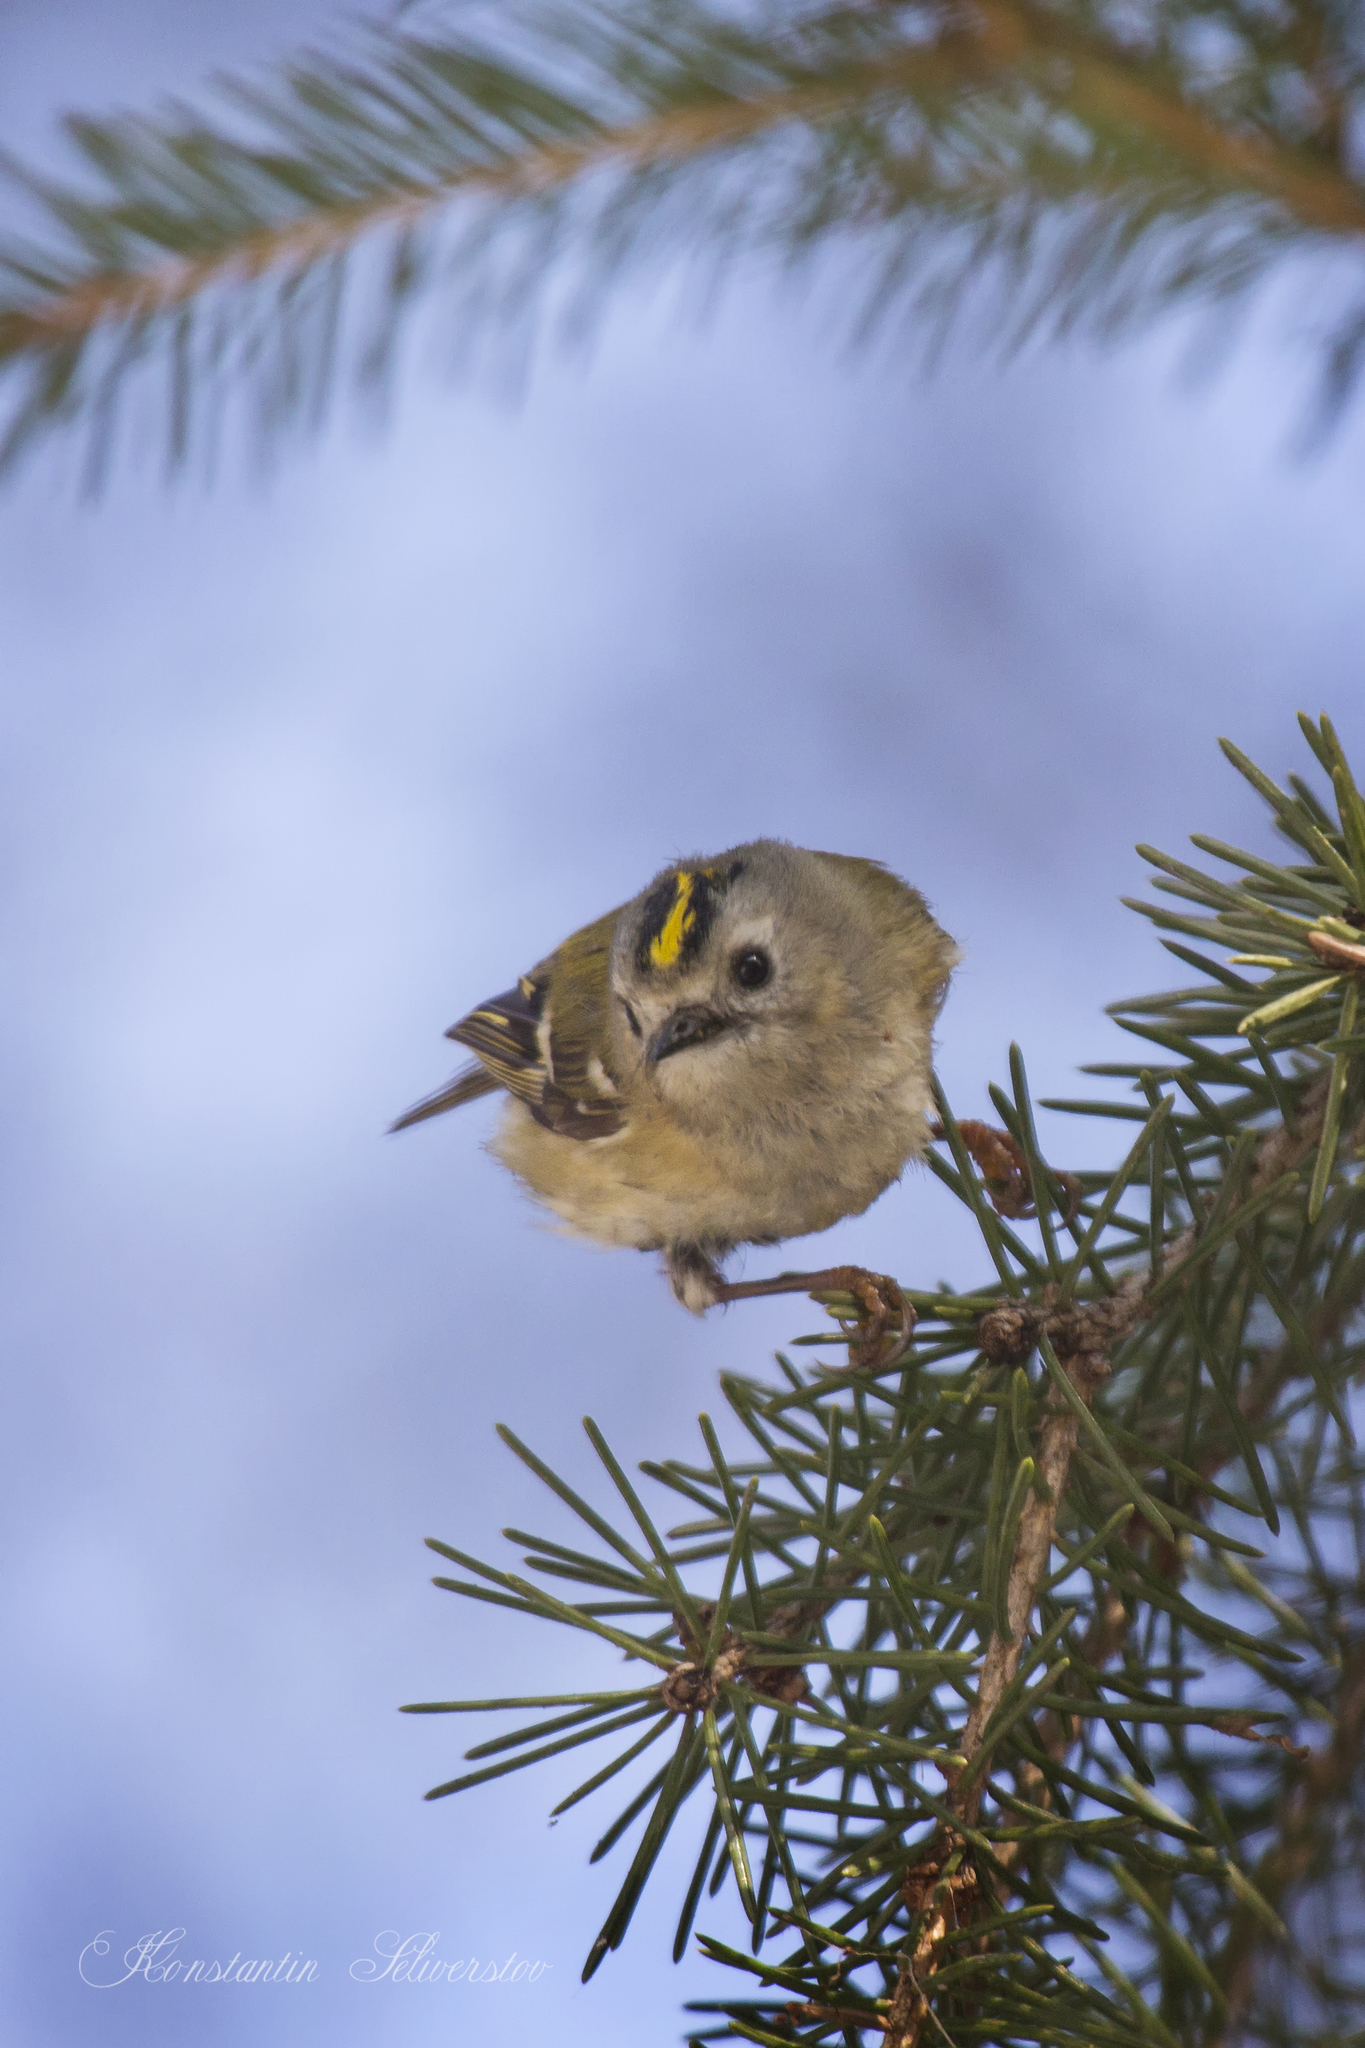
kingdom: Animalia
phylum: Chordata
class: Aves
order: Passeriformes
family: Regulidae
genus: Regulus
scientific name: Regulus regulus
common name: Goldcrest
